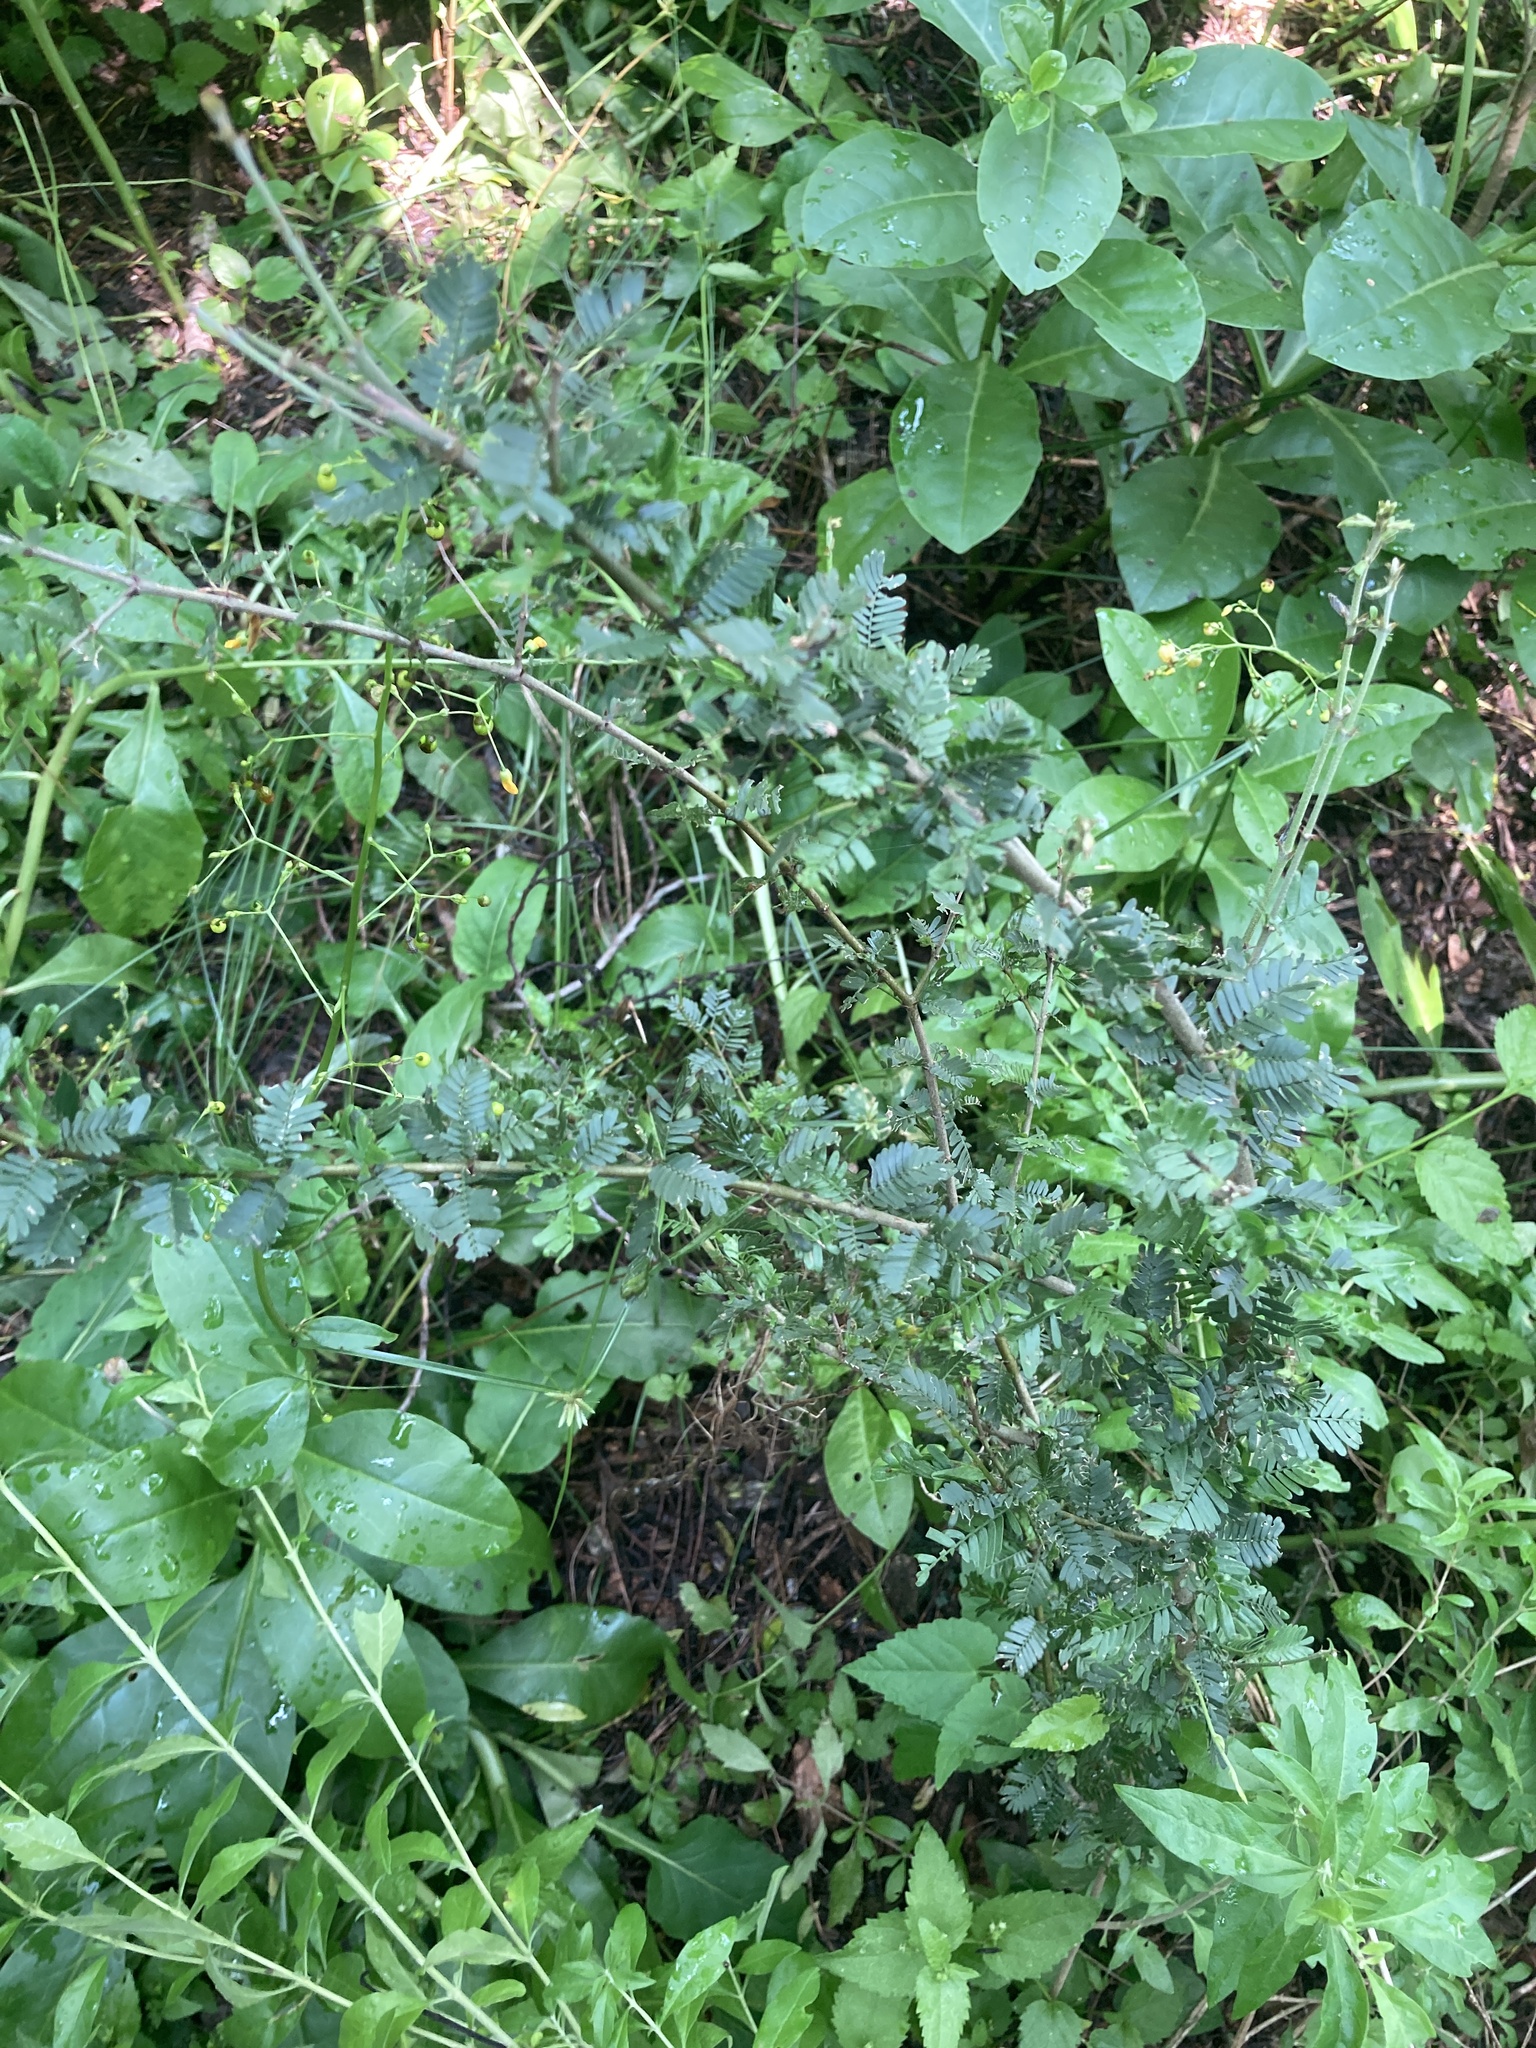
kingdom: Plantae
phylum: Tracheophyta
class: Magnoliopsida
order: Zygophyllales
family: Zygophyllaceae
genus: Porlieria
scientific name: Porlieria microphylla
